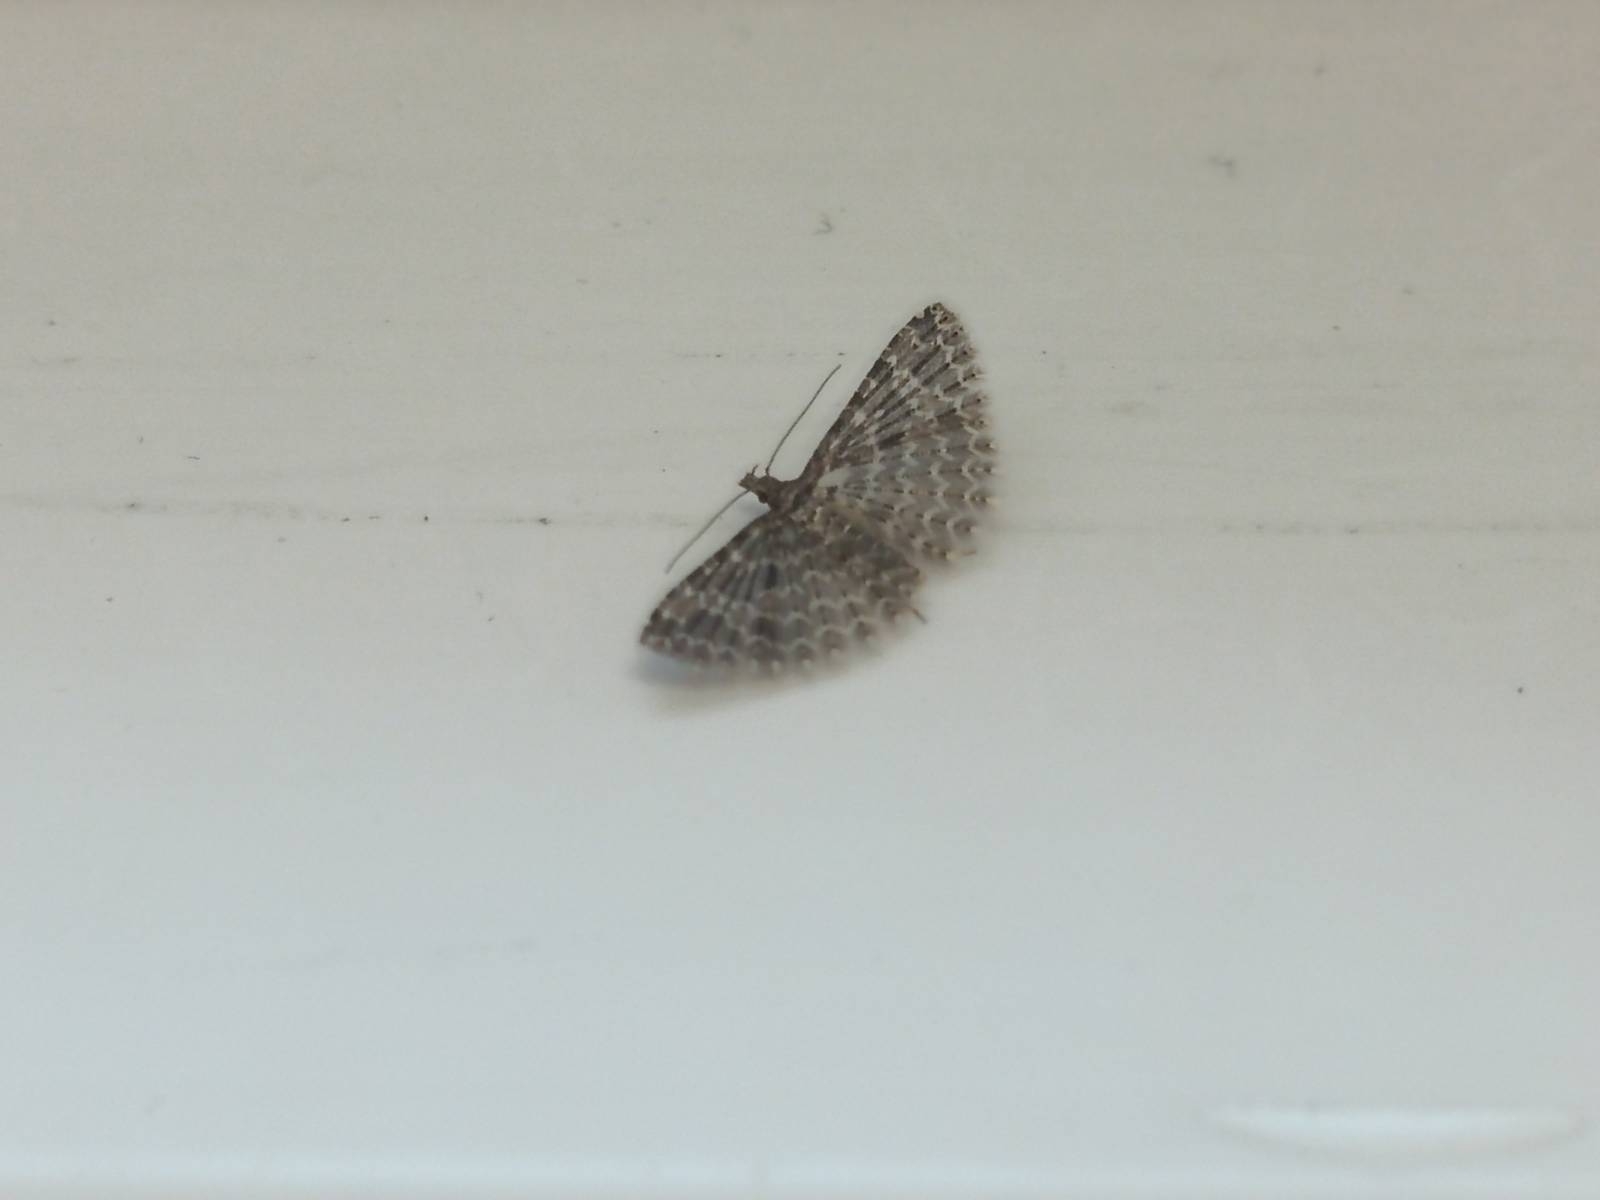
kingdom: Animalia
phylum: Arthropoda
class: Insecta
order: Lepidoptera
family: Alucitidae
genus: Alucita
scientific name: Alucita huebneri
